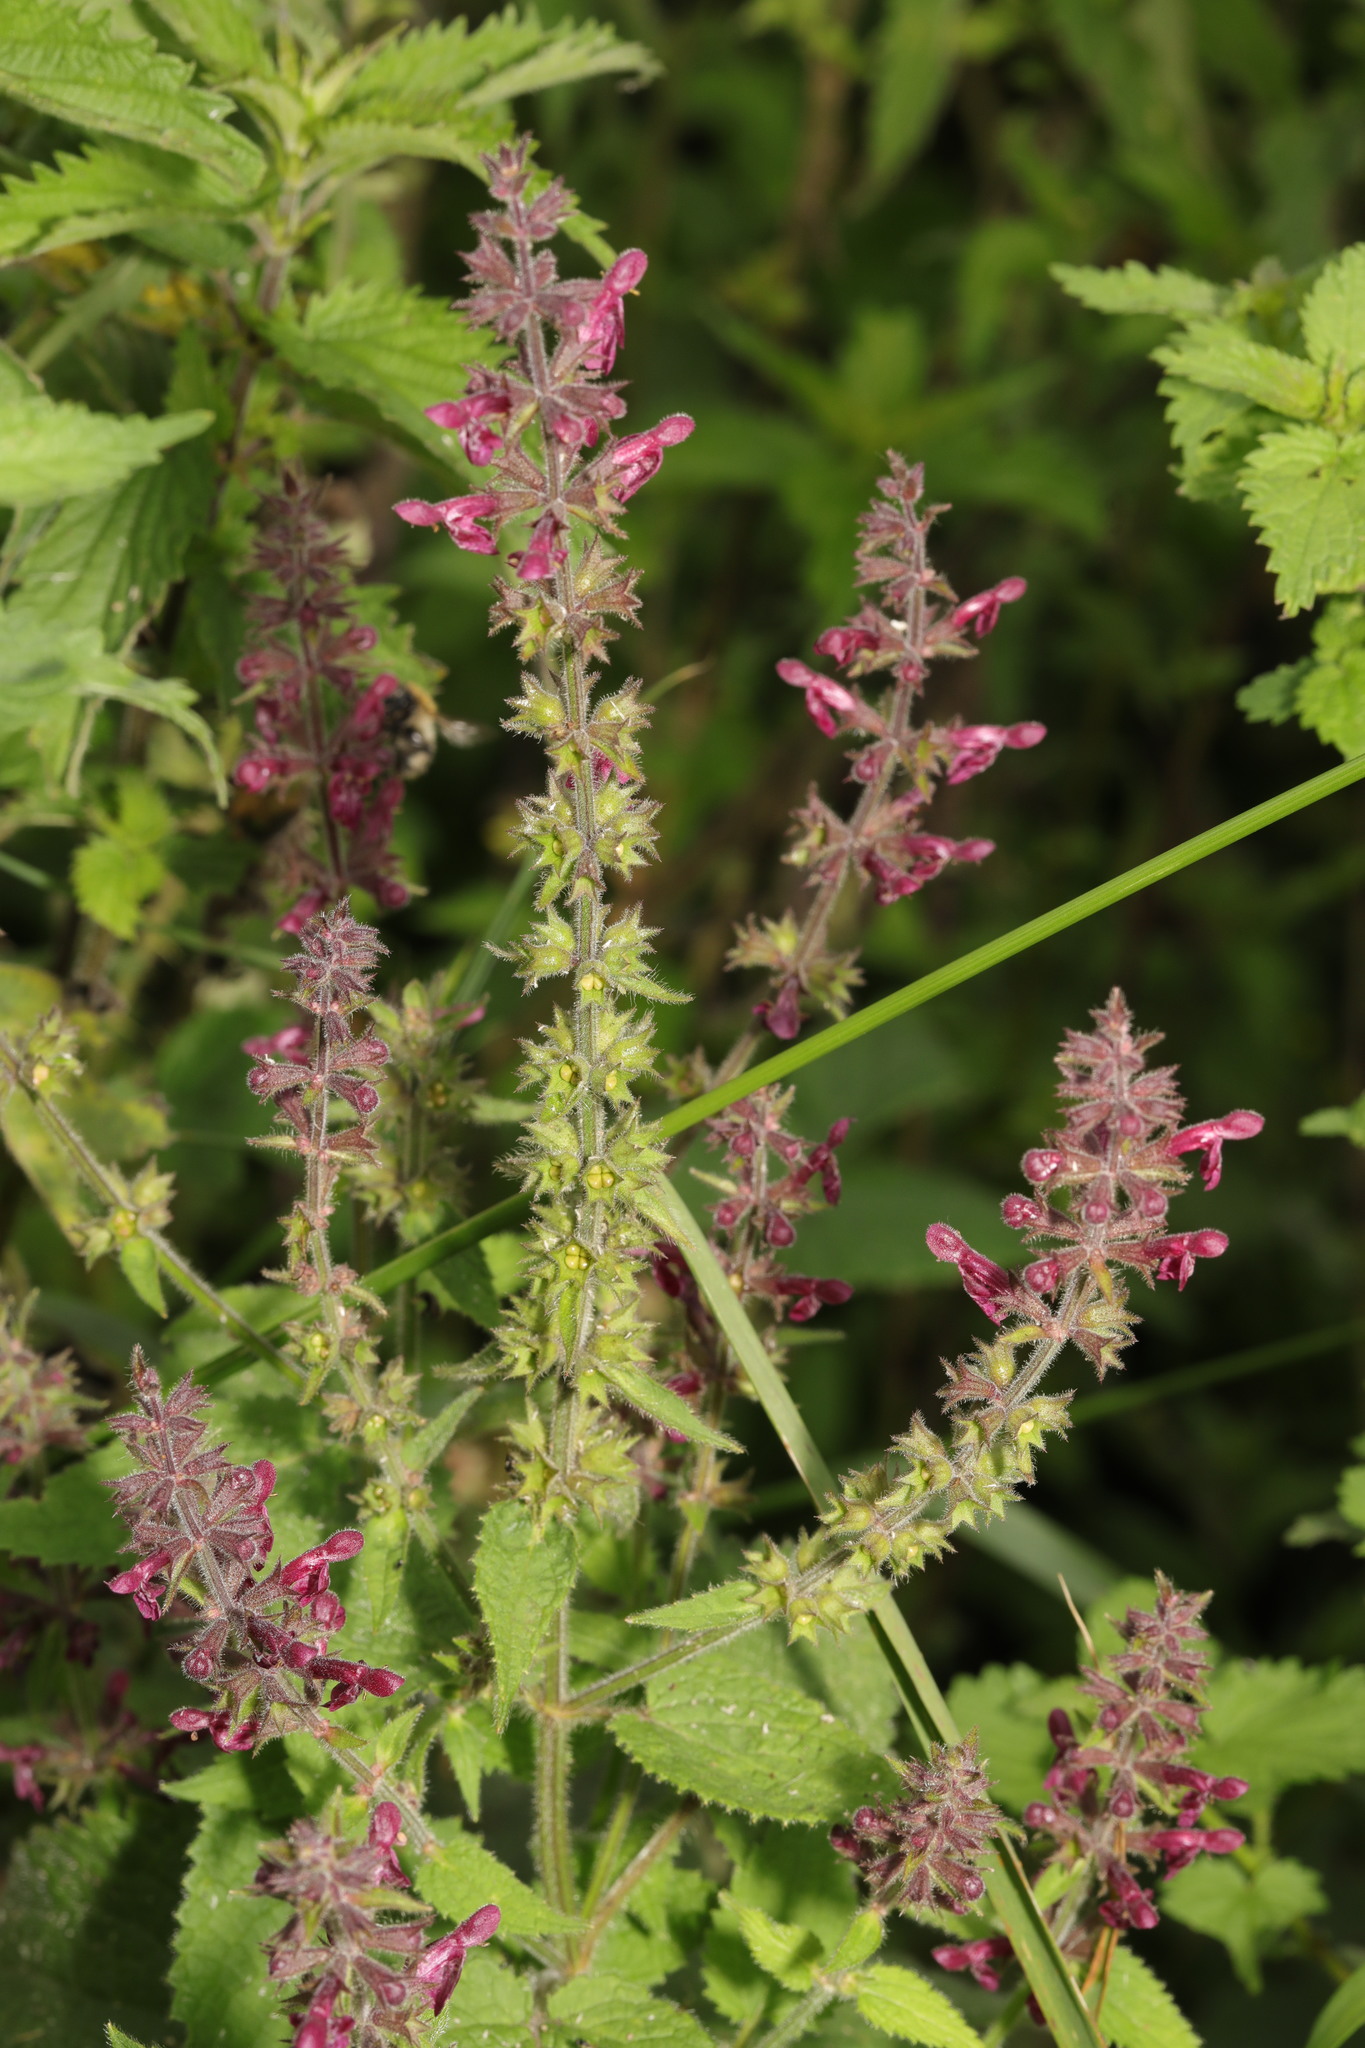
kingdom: Plantae
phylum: Tracheophyta
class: Magnoliopsida
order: Lamiales
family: Lamiaceae
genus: Stachys
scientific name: Stachys sylvatica
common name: Hedge woundwort
